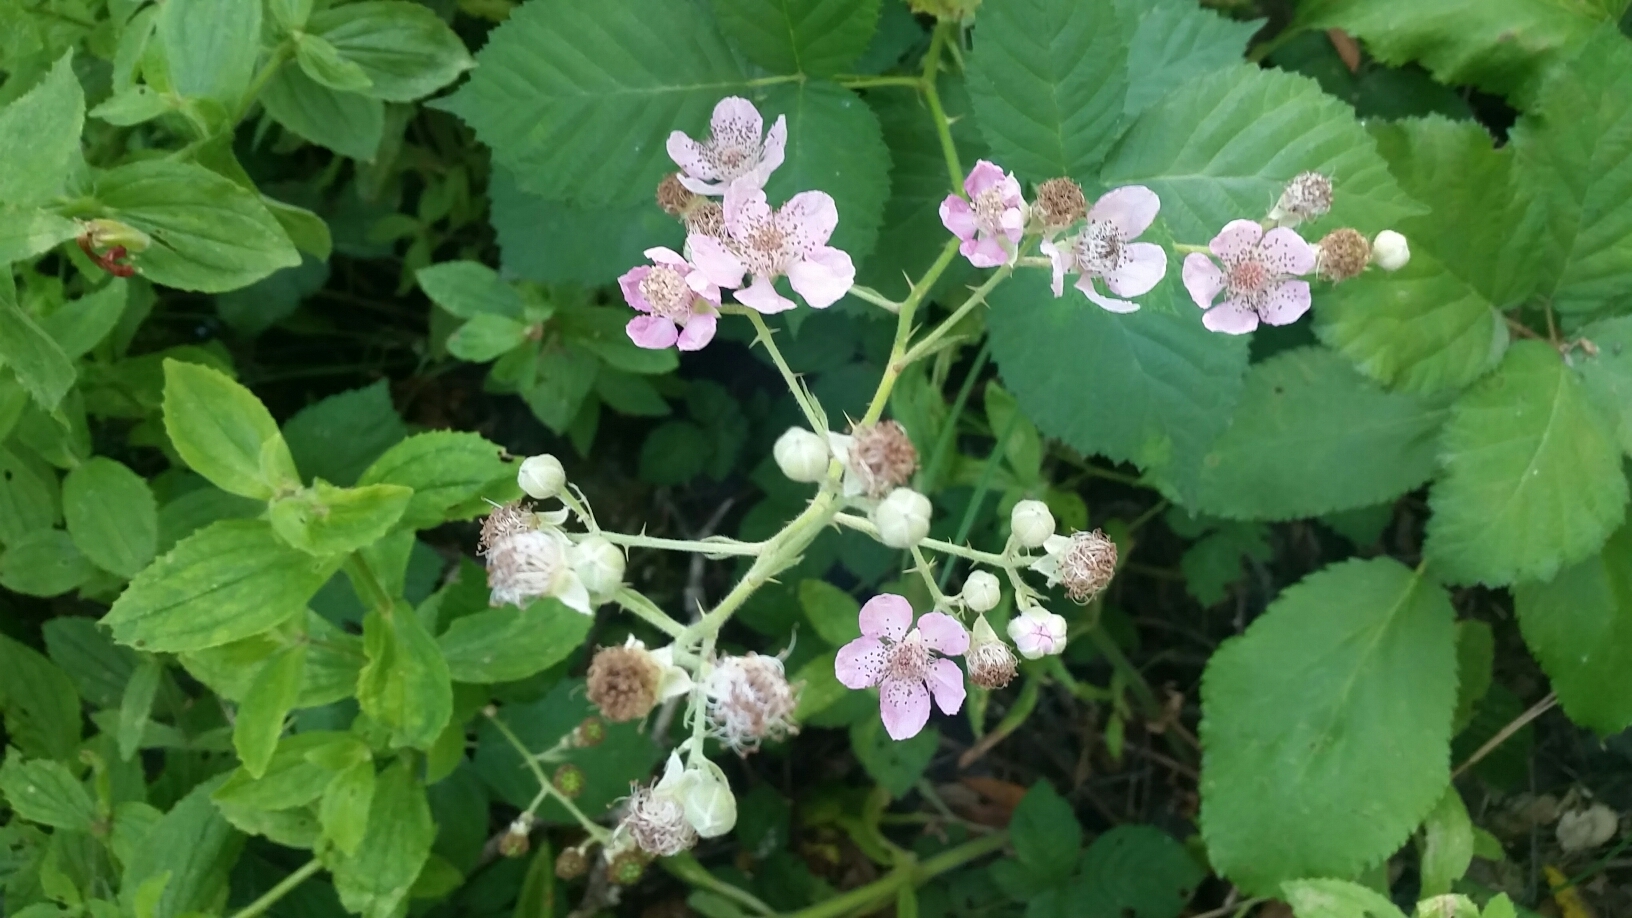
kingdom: Plantae
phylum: Tracheophyta
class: Magnoliopsida
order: Rosales
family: Rosaceae
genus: Rubus
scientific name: Rubus armeniacus
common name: Himalayan blackberry
